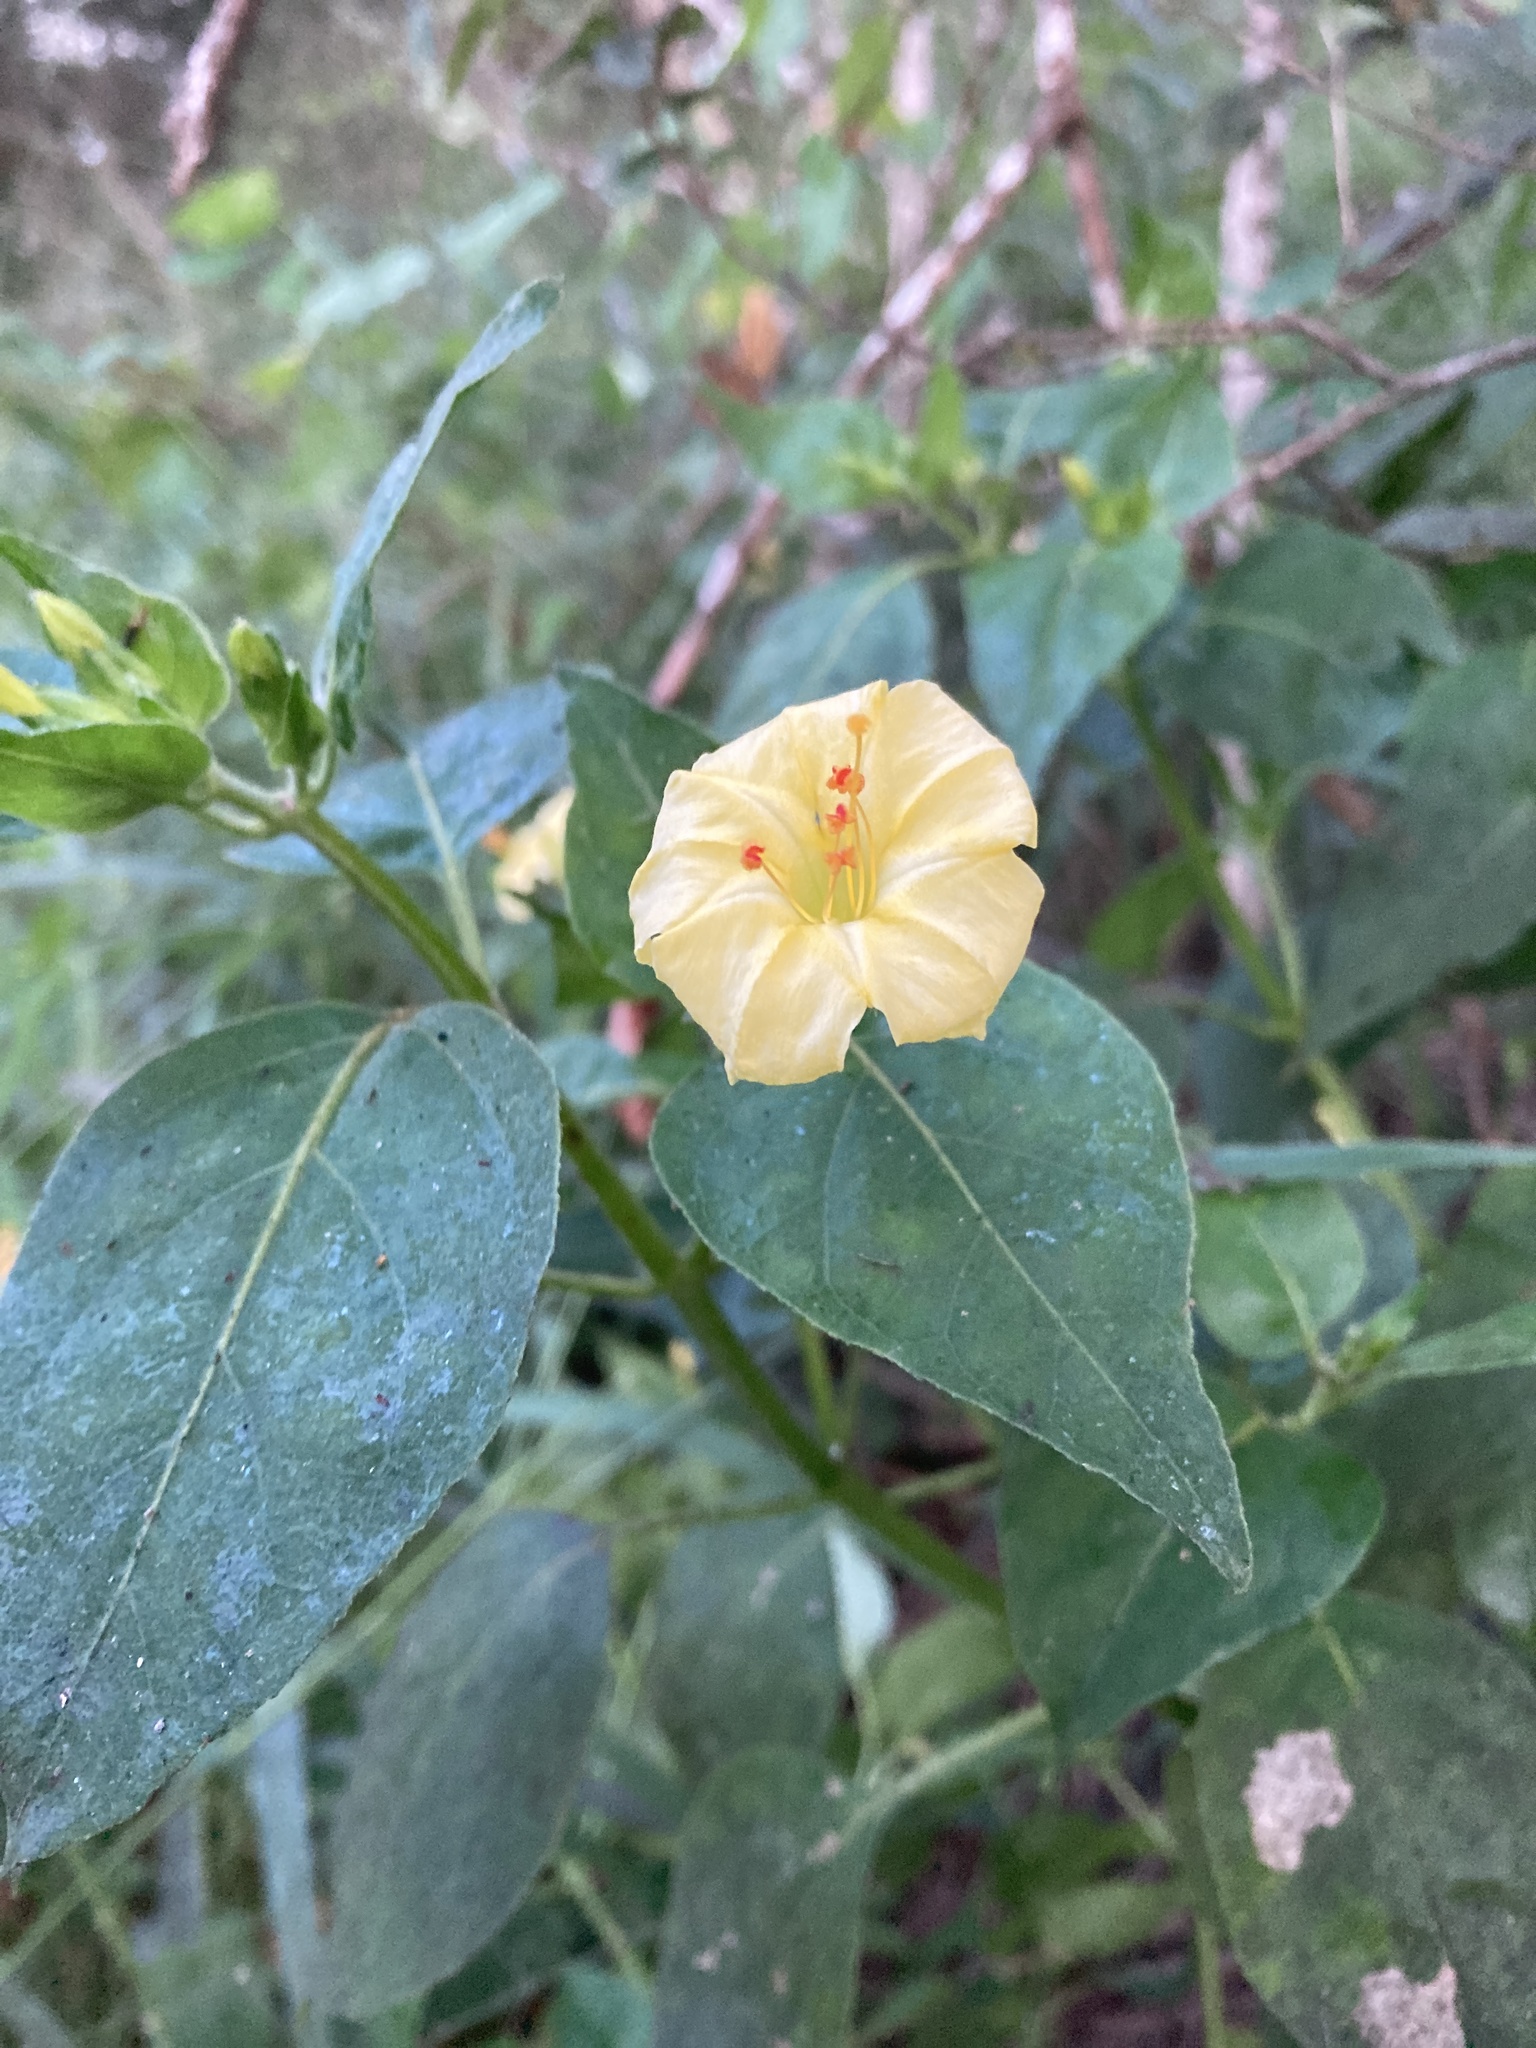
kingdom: Plantae
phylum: Tracheophyta
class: Magnoliopsida
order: Caryophyllales
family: Nyctaginaceae
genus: Mirabilis
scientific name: Mirabilis jalapa
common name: Marvel-of-peru
